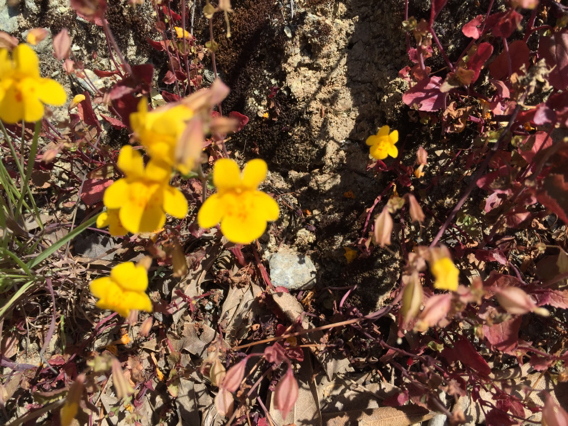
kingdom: Plantae
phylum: Tracheophyta
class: Magnoliopsida
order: Lamiales
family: Phrymaceae
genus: Erythranthe
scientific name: Erythranthe guttata
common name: Monkeyflower
